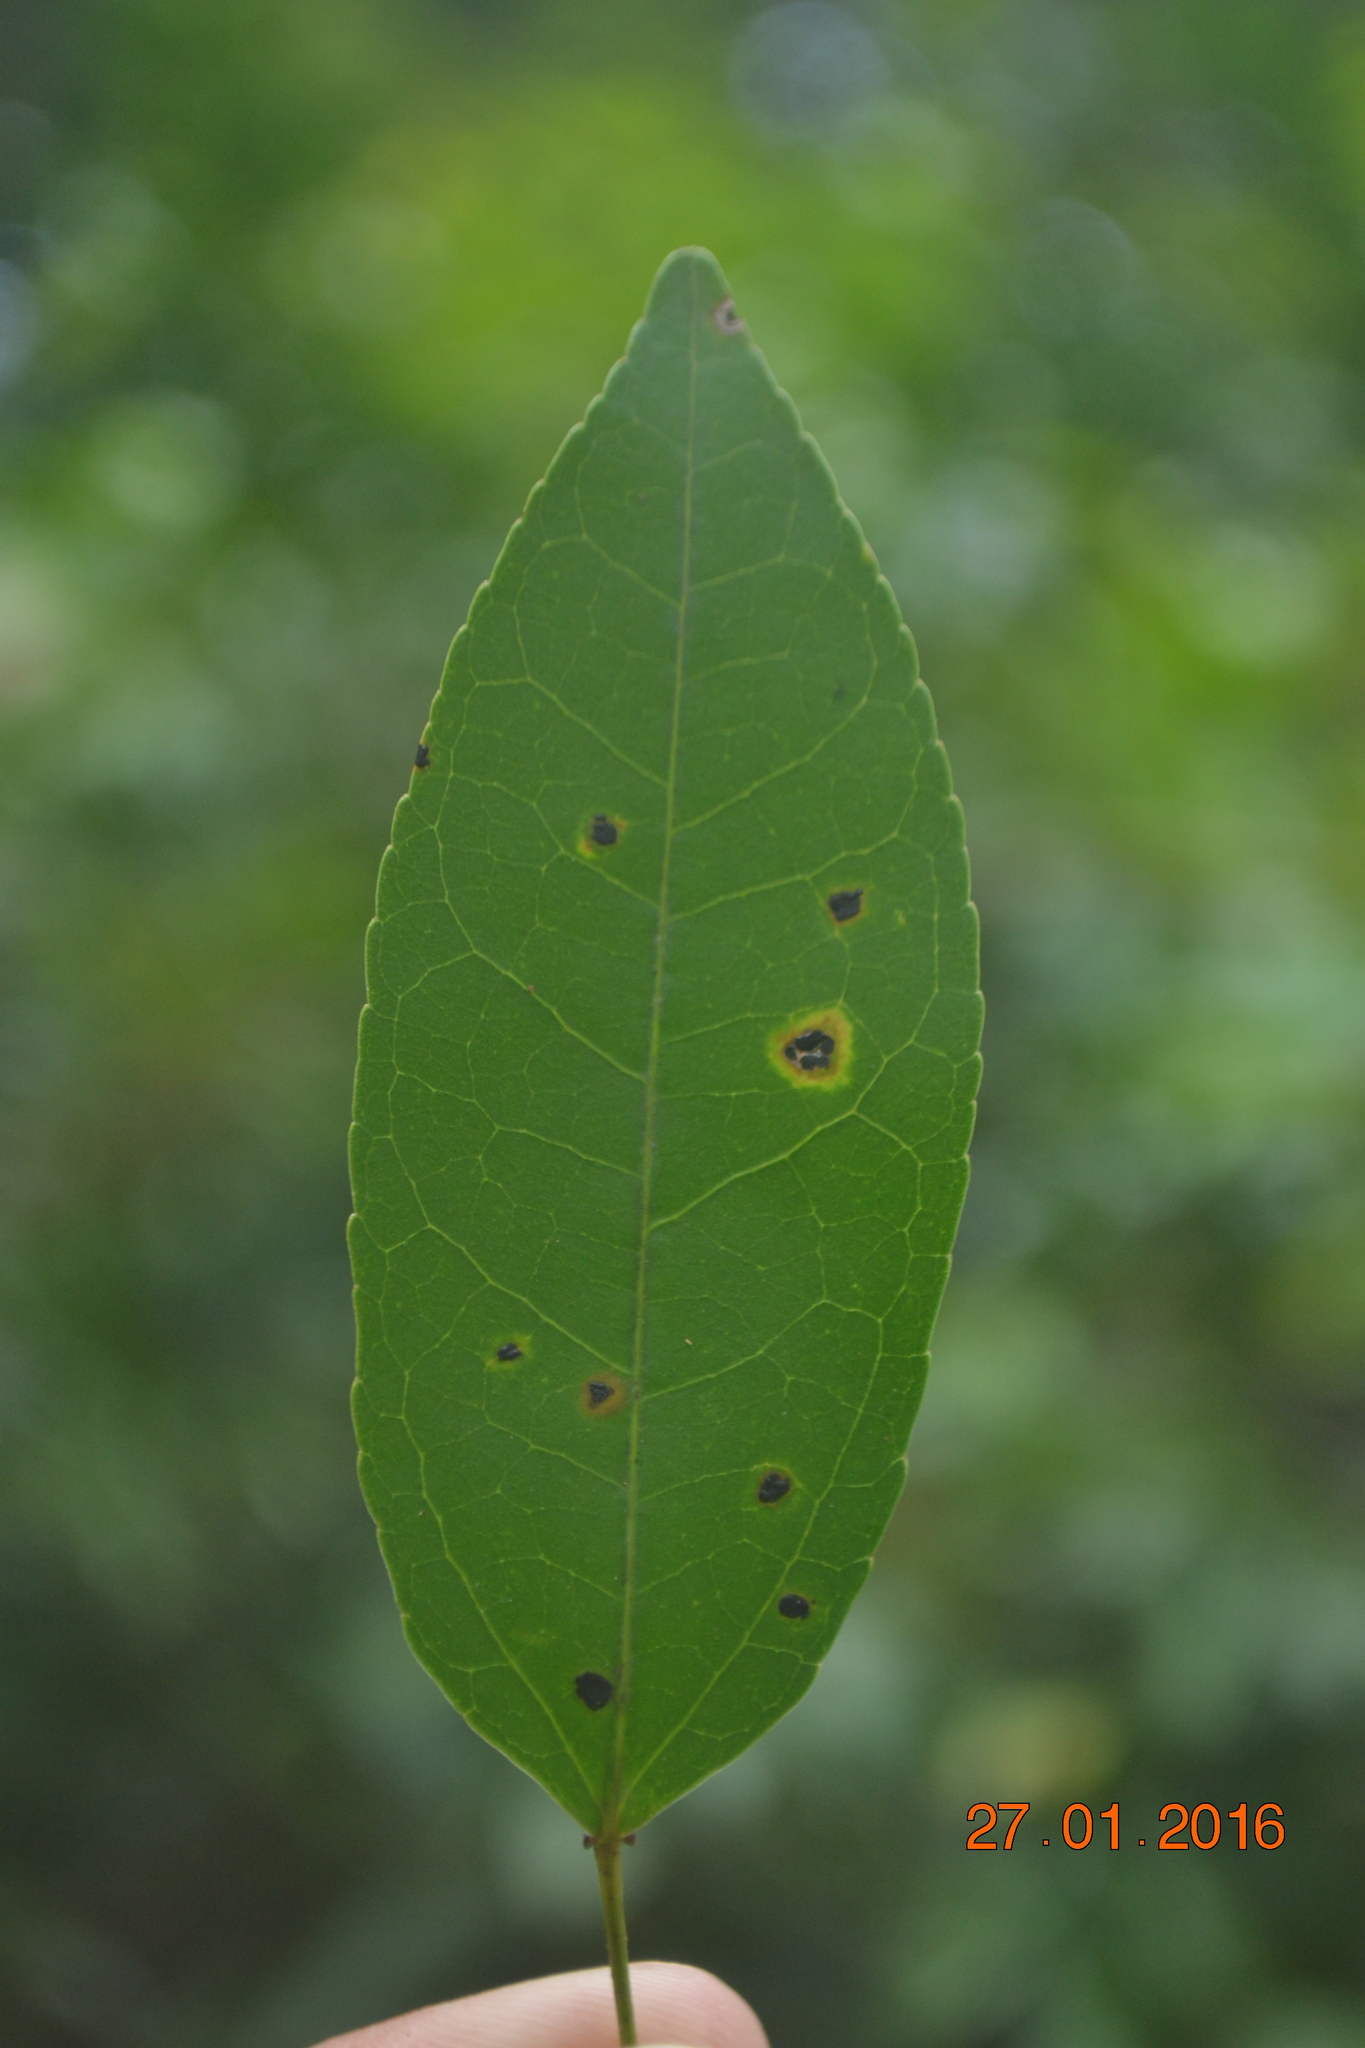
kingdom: Plantae
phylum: Tracheophyta
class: Magnoliopsida
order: Malpighiales
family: Euphorbiaceae
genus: Croton
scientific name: Croton klotzschianus
